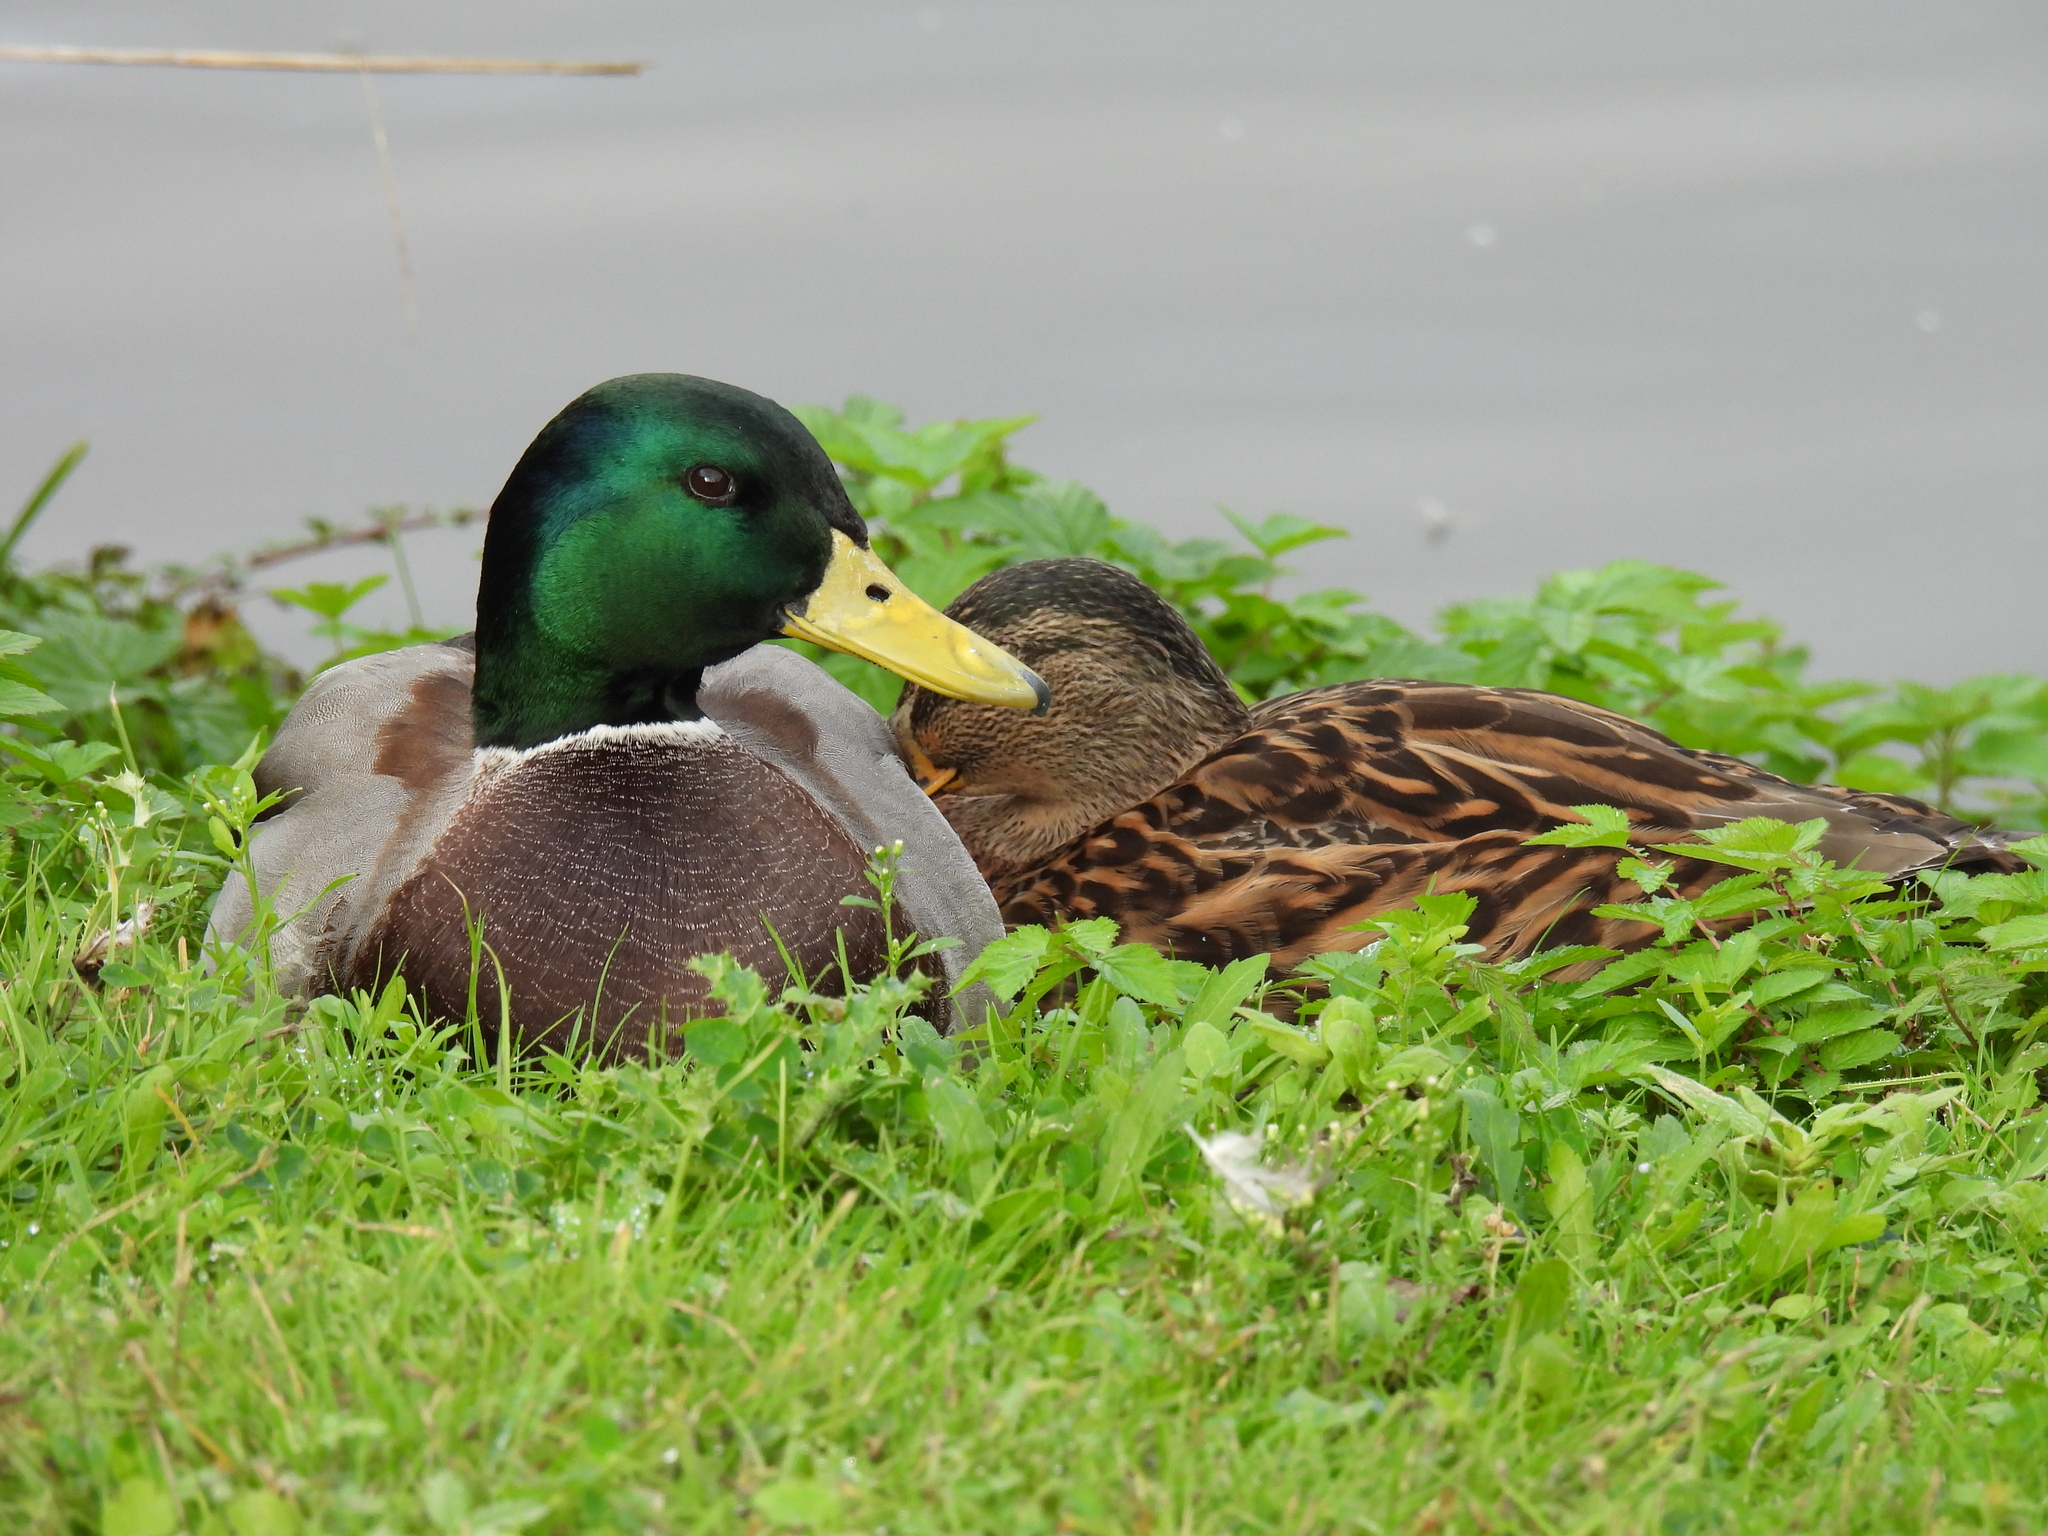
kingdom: Animalia
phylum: Chordata
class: Aves
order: Anseriformes
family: Anatidae
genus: Anas
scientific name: Anas platyrhynchos
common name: Mallard
